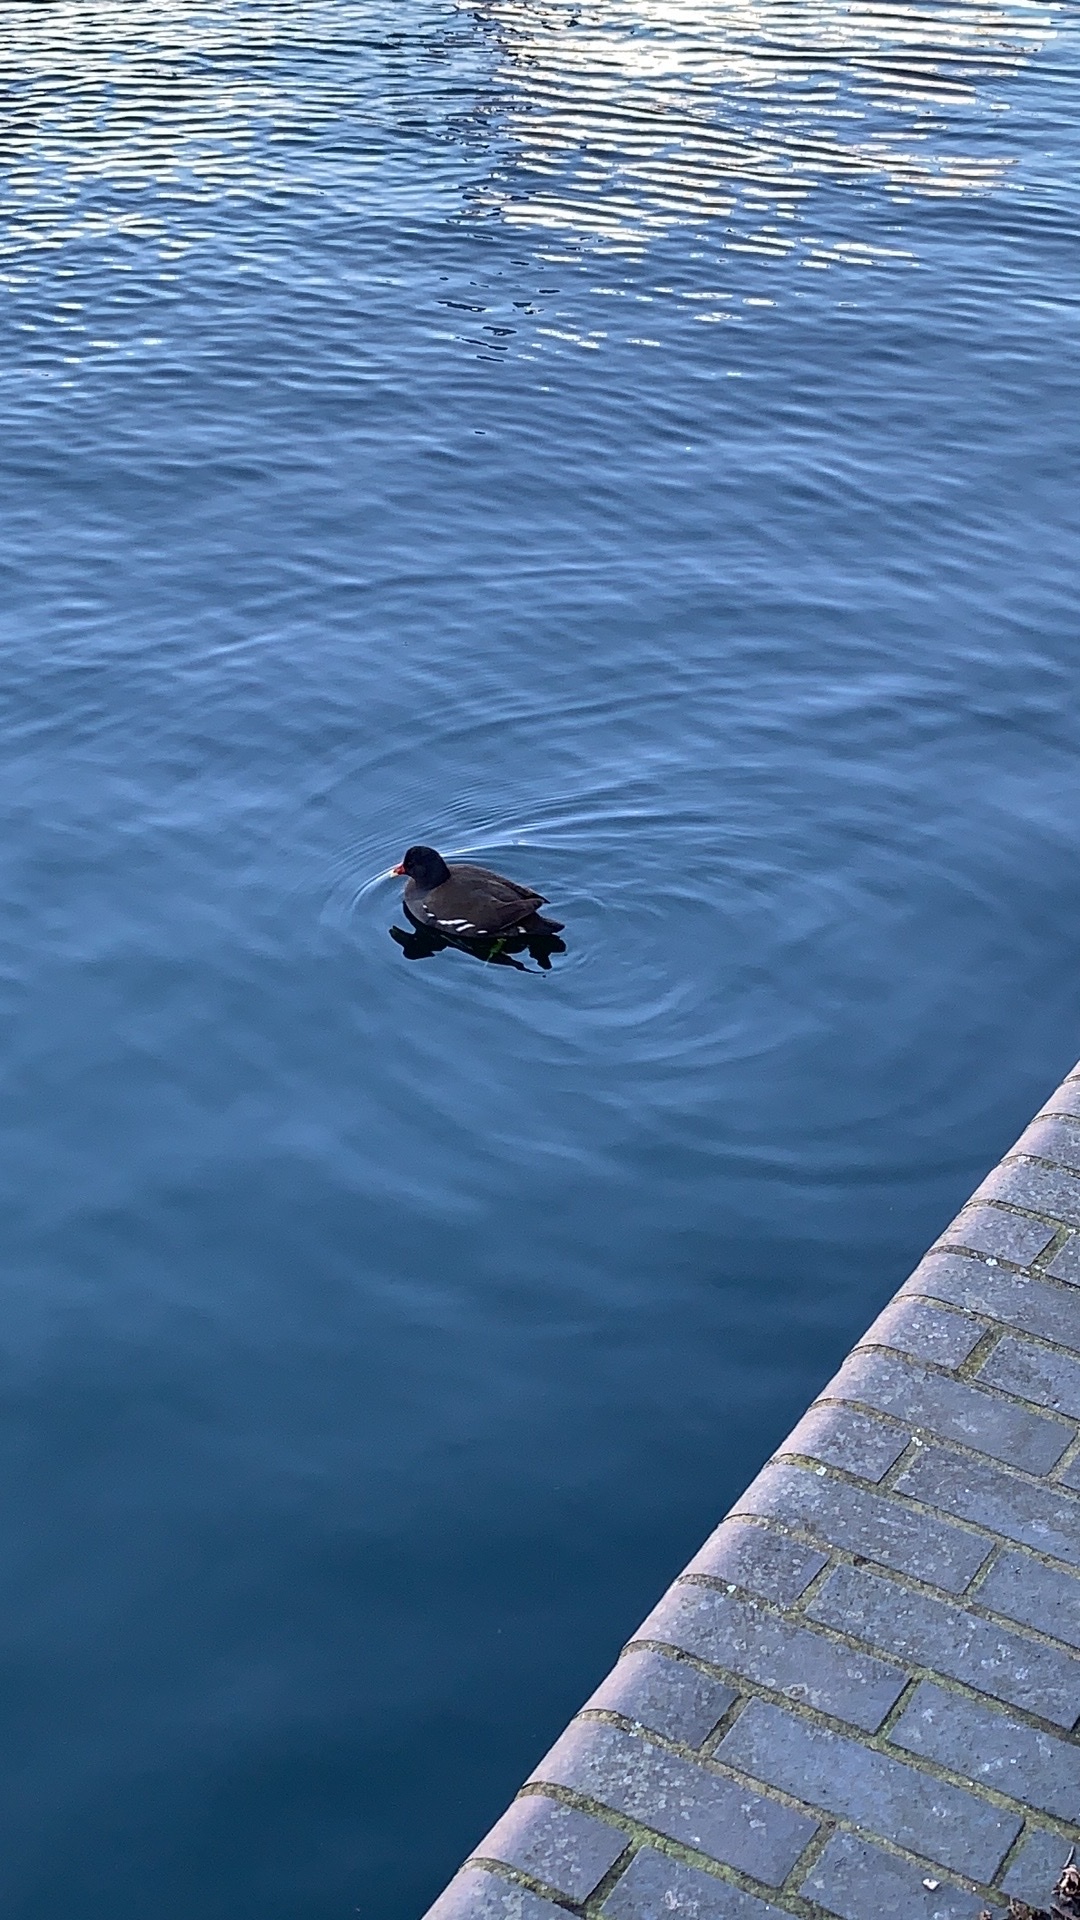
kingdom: Animalia
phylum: Chordata
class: Aves
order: Gruiformes
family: Rallidae
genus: Gallinula
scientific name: Gallinula chloropus
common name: Common moorhen
